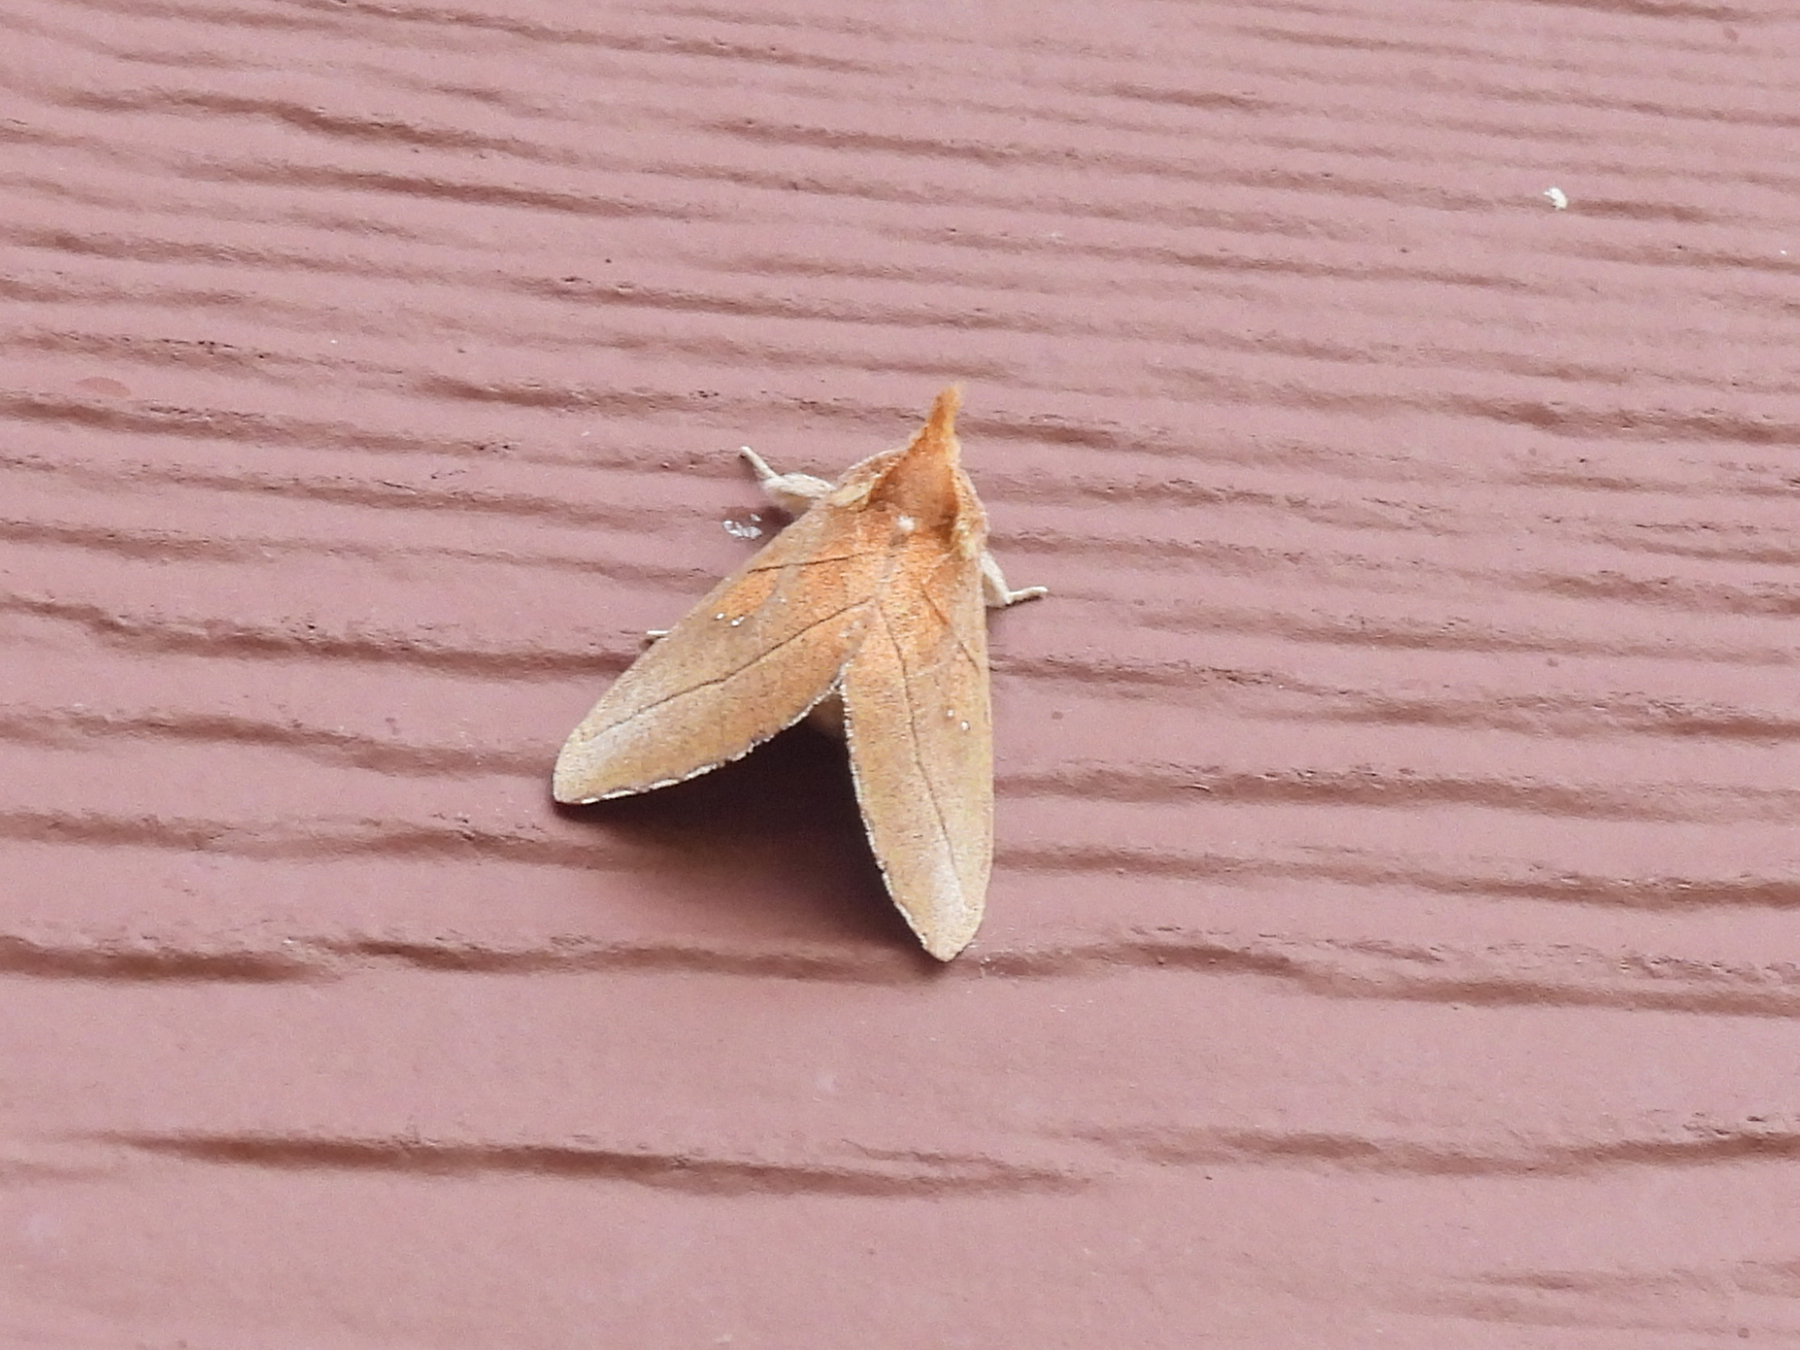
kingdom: Animalia
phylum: Arthropoda
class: Insecta
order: Lepidoptera
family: Notodontidae
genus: Nadata
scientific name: Nadata gibbosa
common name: White-dotted prominent
